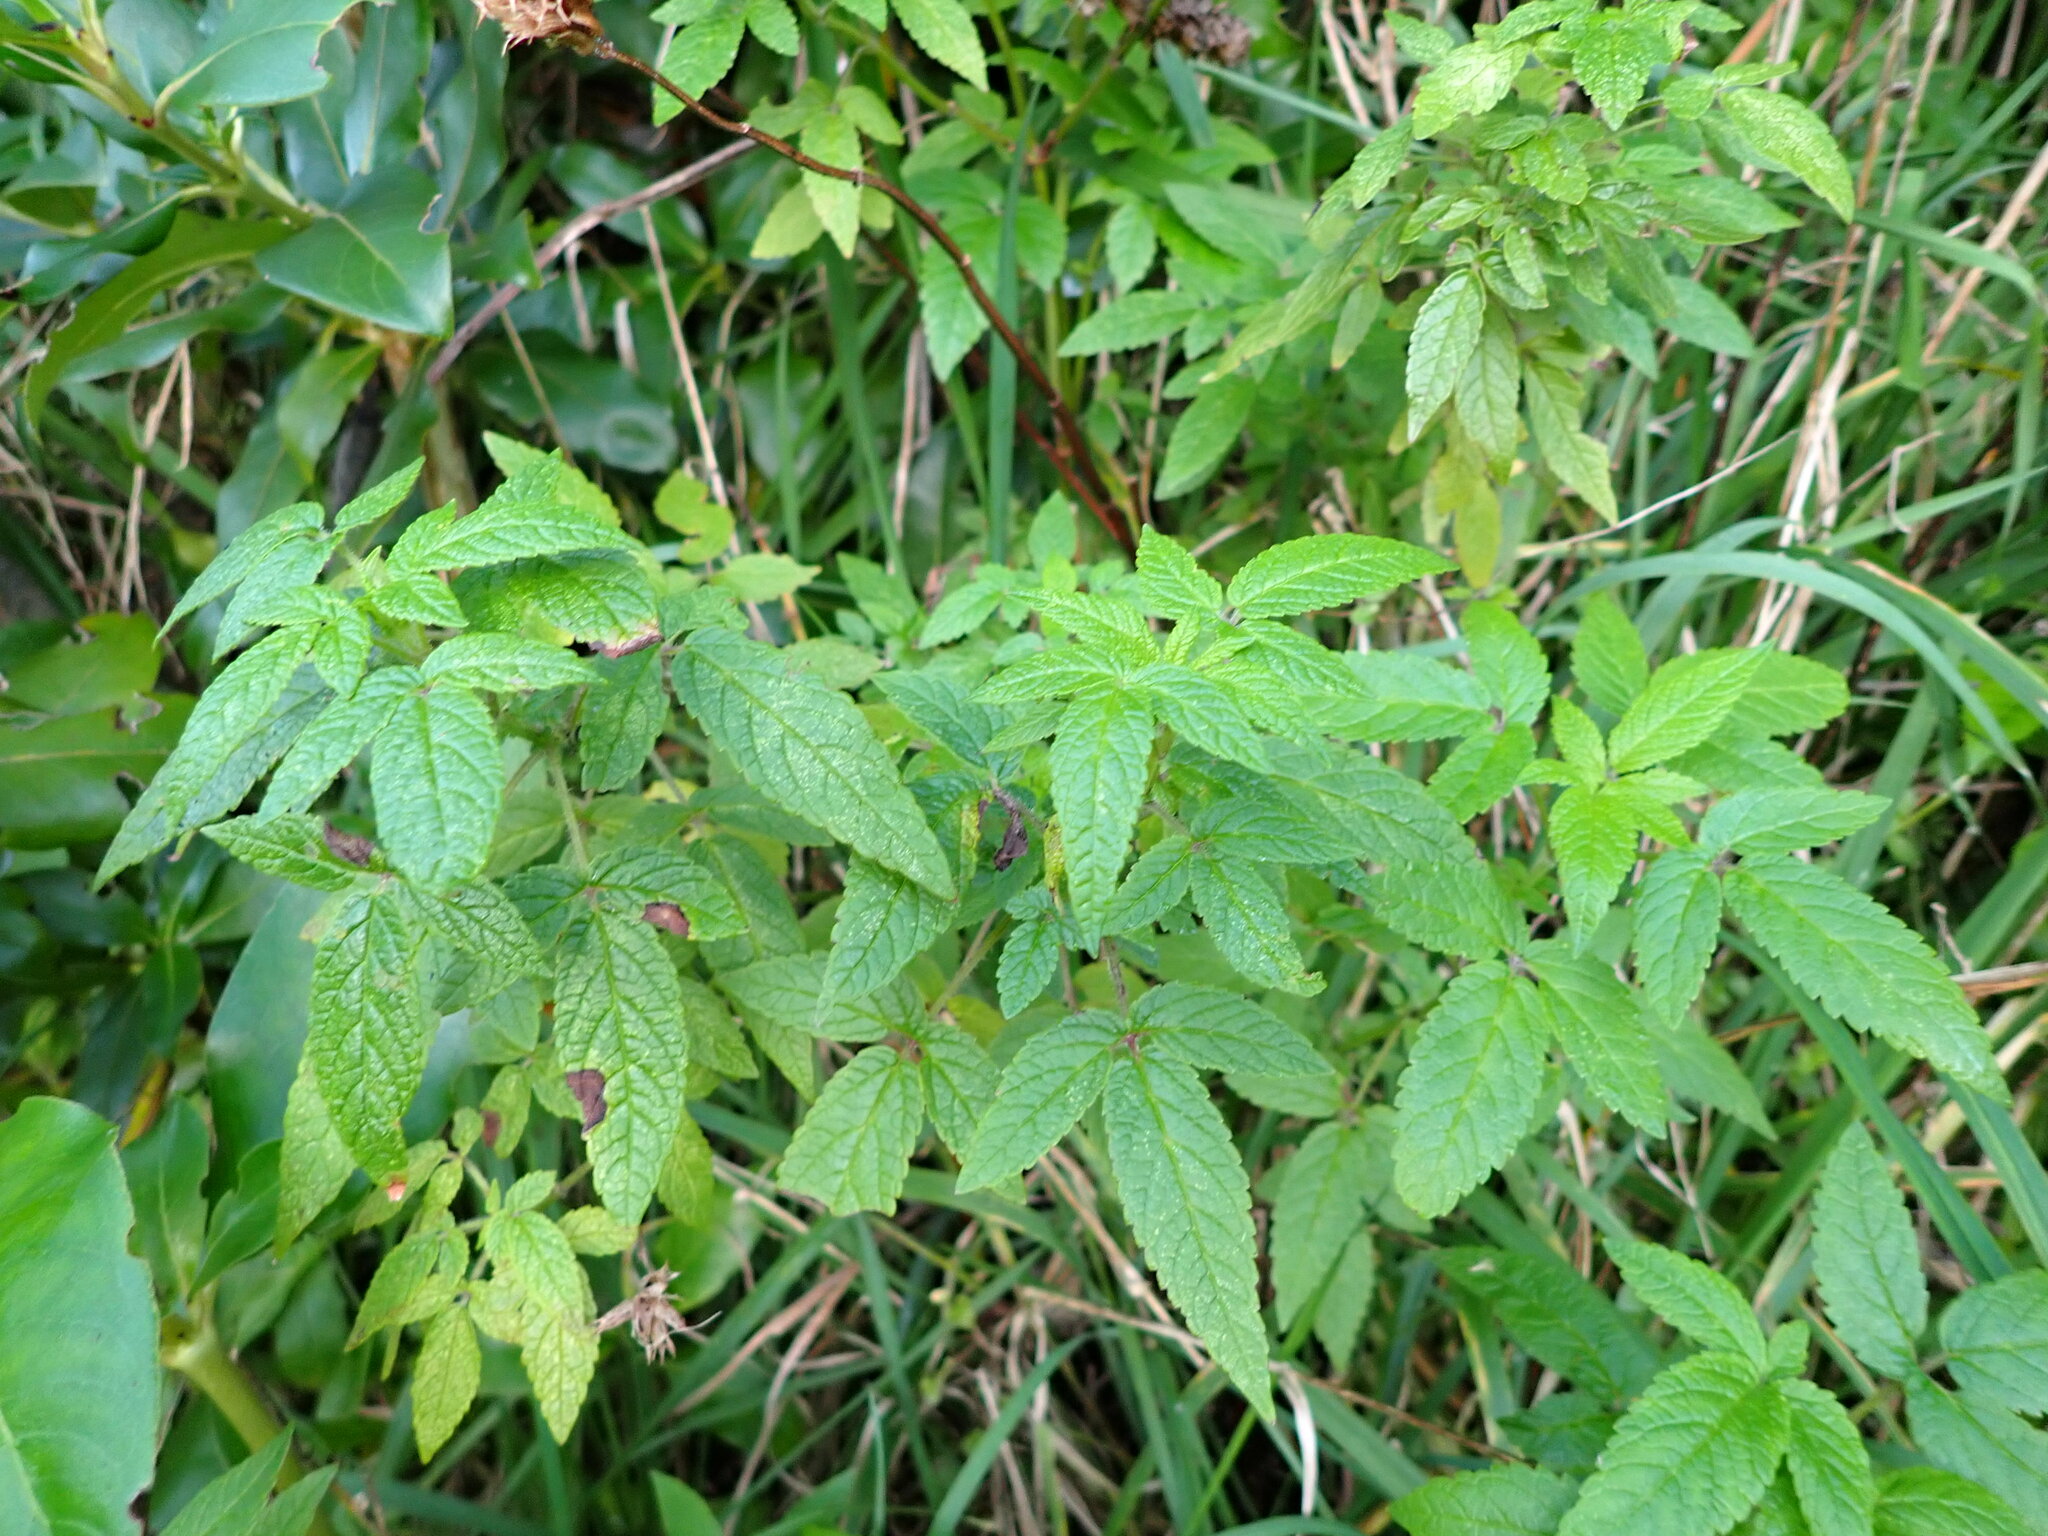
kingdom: Plantae
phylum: Tracheophyta
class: Magnoliopsida
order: Lamiales
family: Lamiaceae
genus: Cedronella
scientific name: Cedronella canariensis
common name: Canary islands balm
